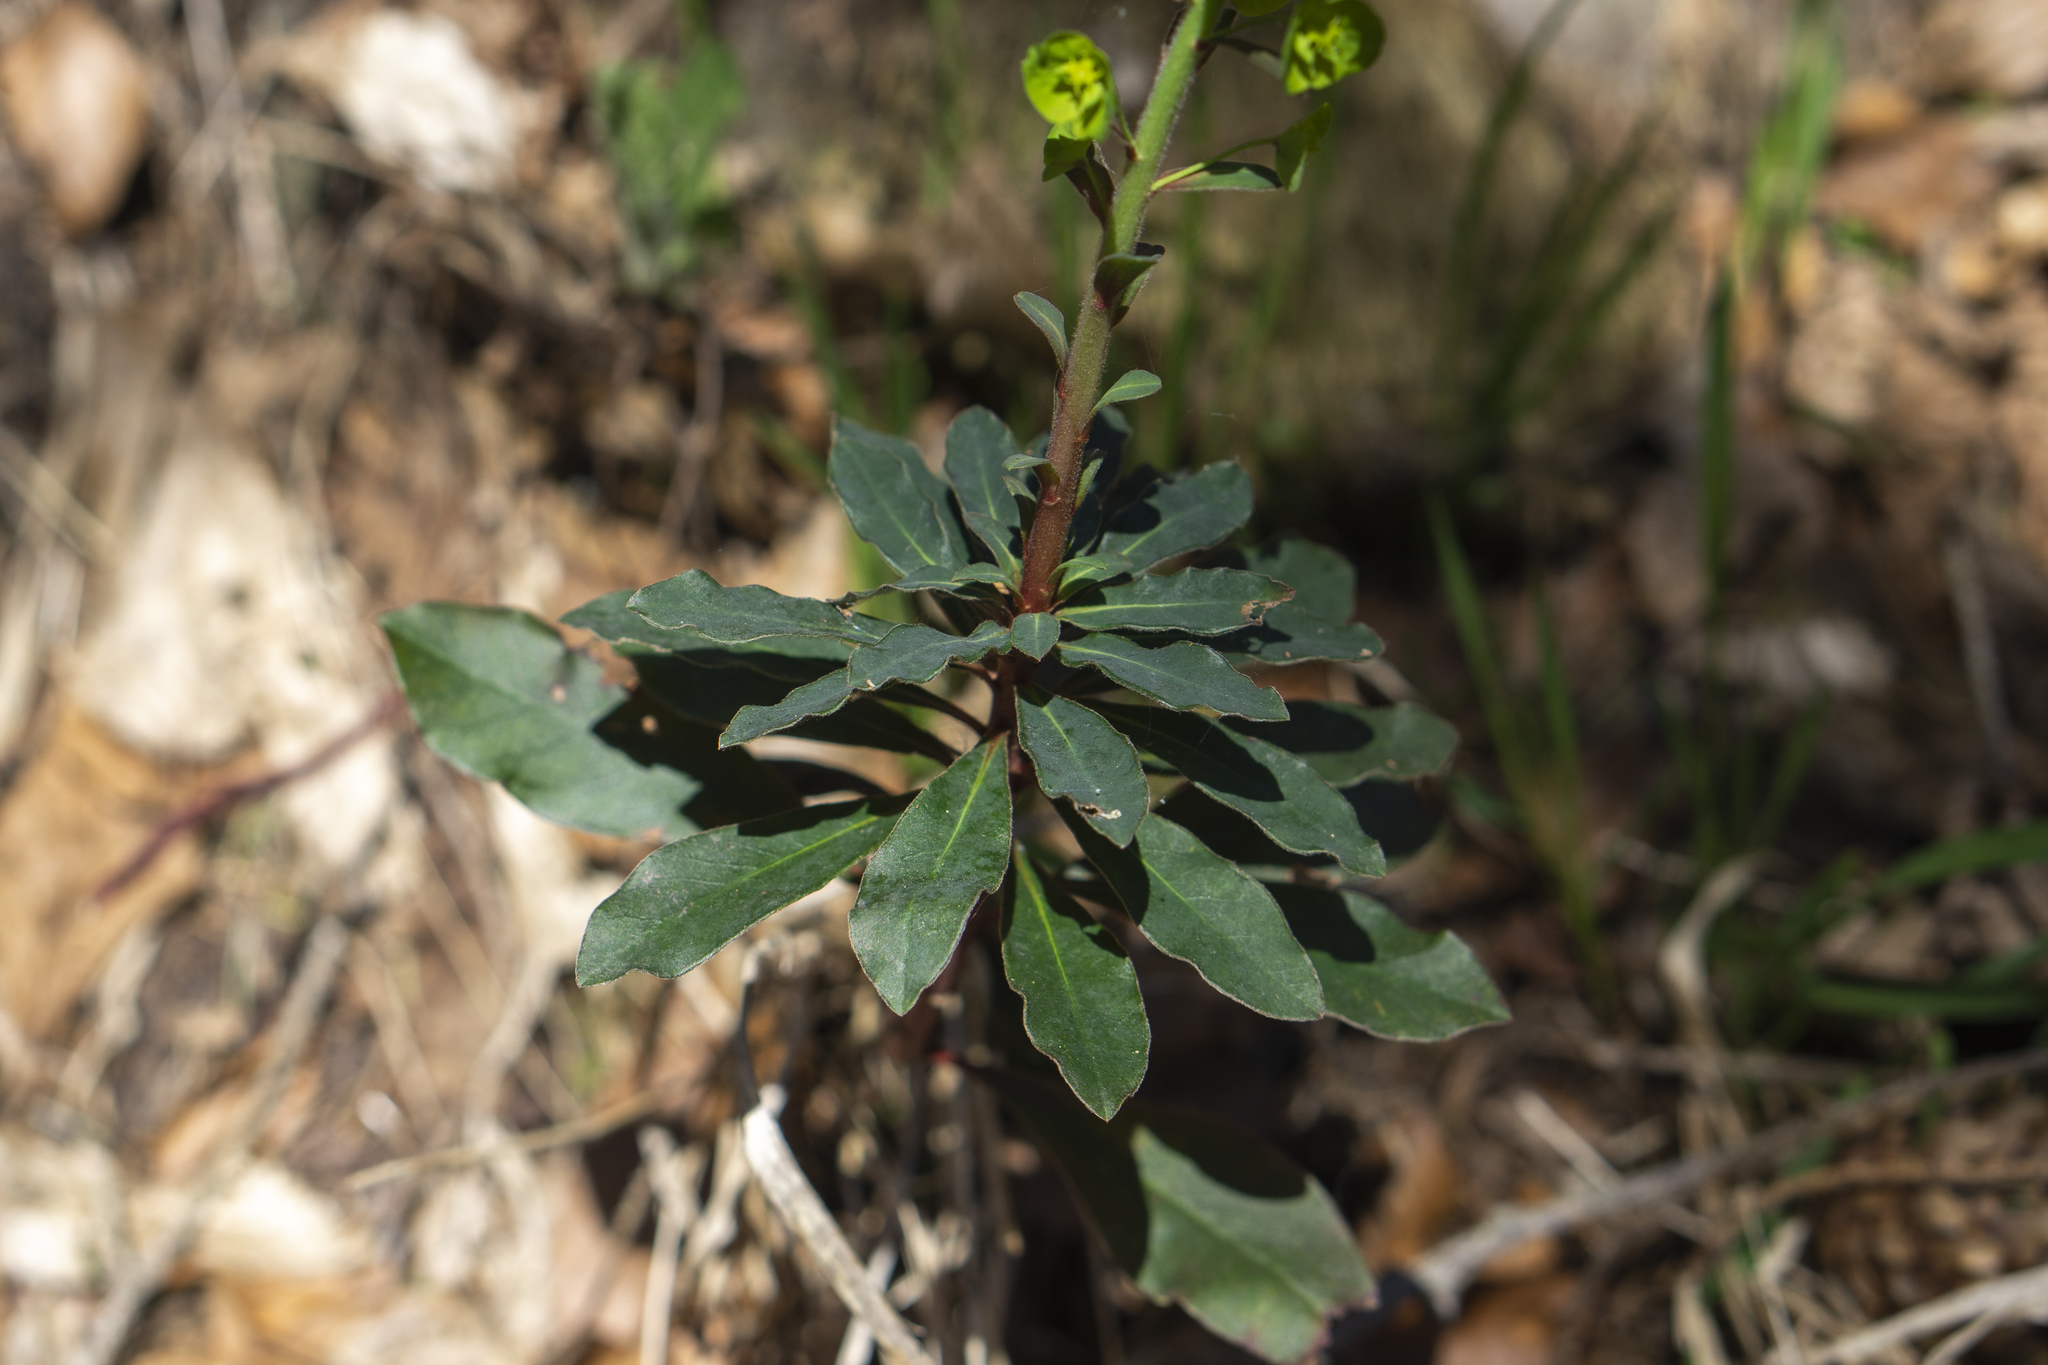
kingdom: Plantae
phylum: Tracheophyta
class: Magnoliopsida
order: Malpighiales
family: Euphorbiaceae
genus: Euphorbia
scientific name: Euphorbia amygdaloides
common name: Wood spurge
